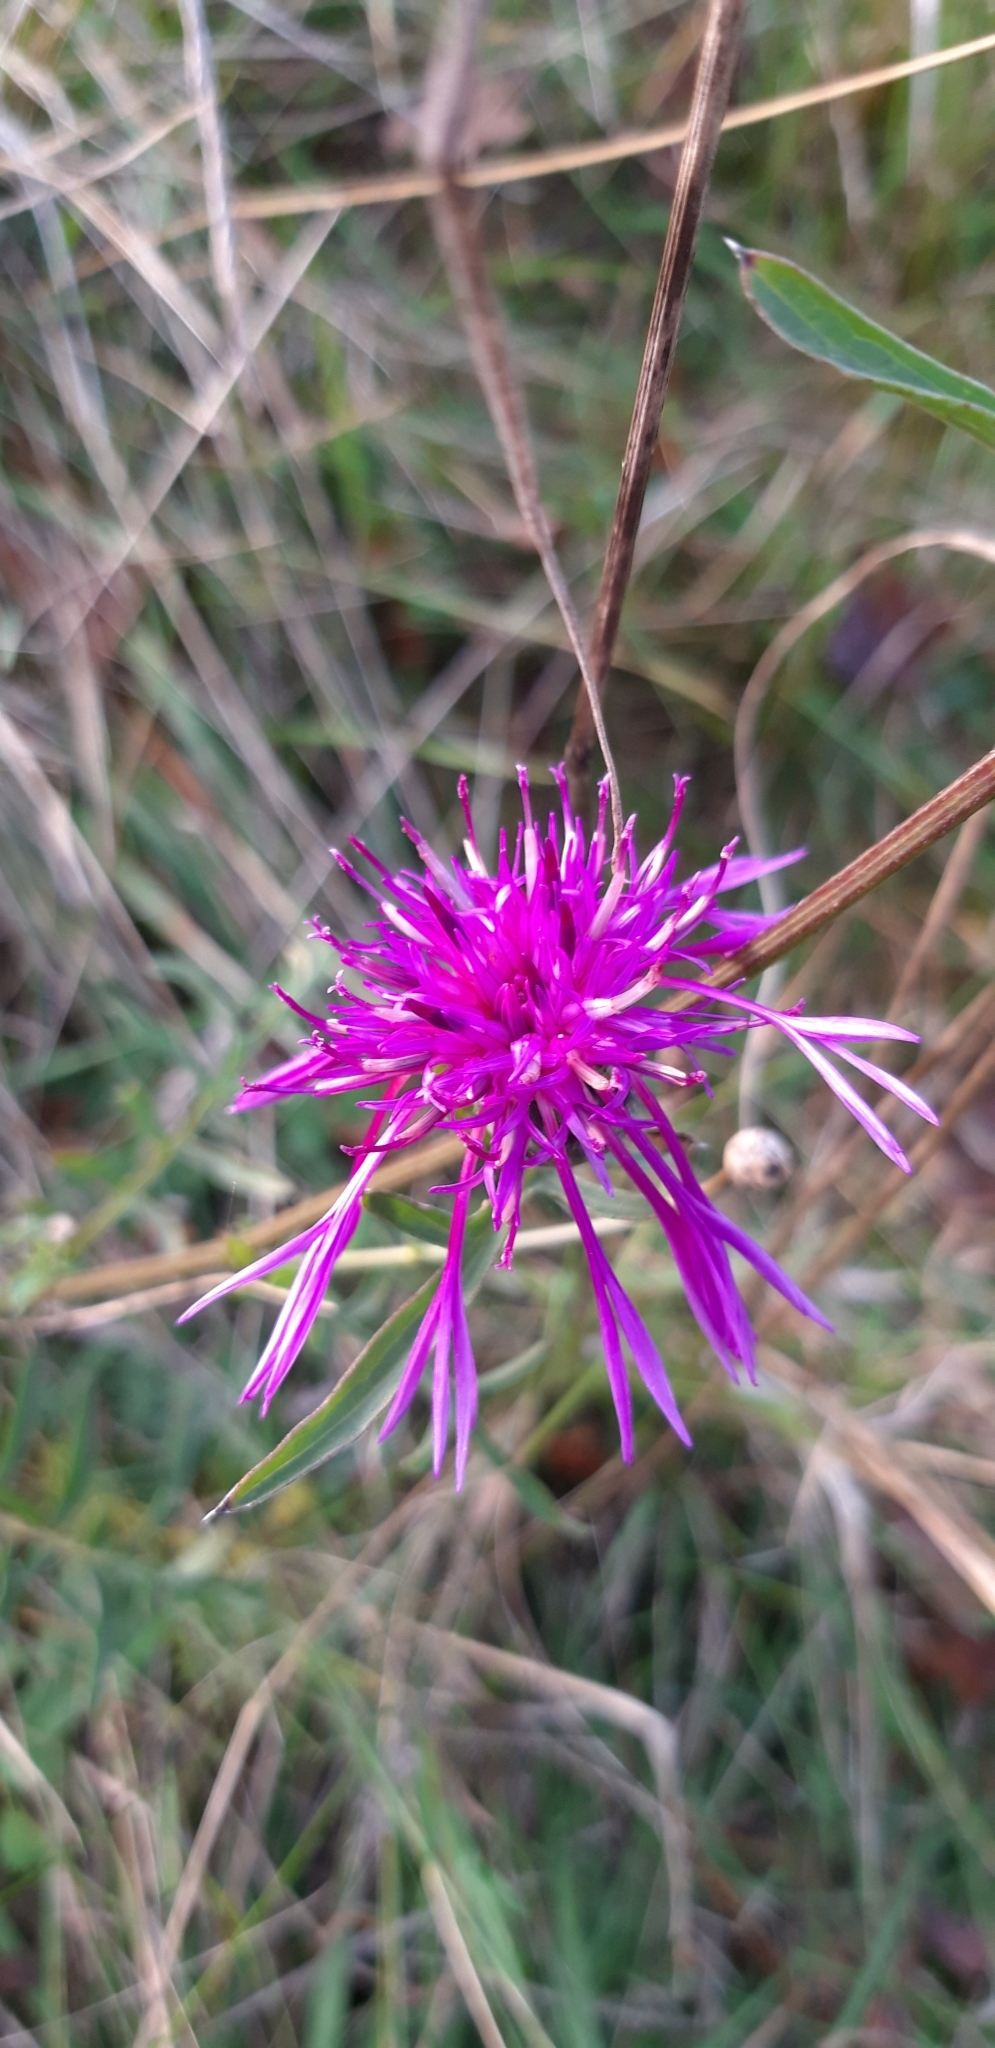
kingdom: Plantae
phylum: Tracheophyta
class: Magnoliopsida
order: Asterales
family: Asteraceae
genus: Centaurea
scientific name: Centaurea
